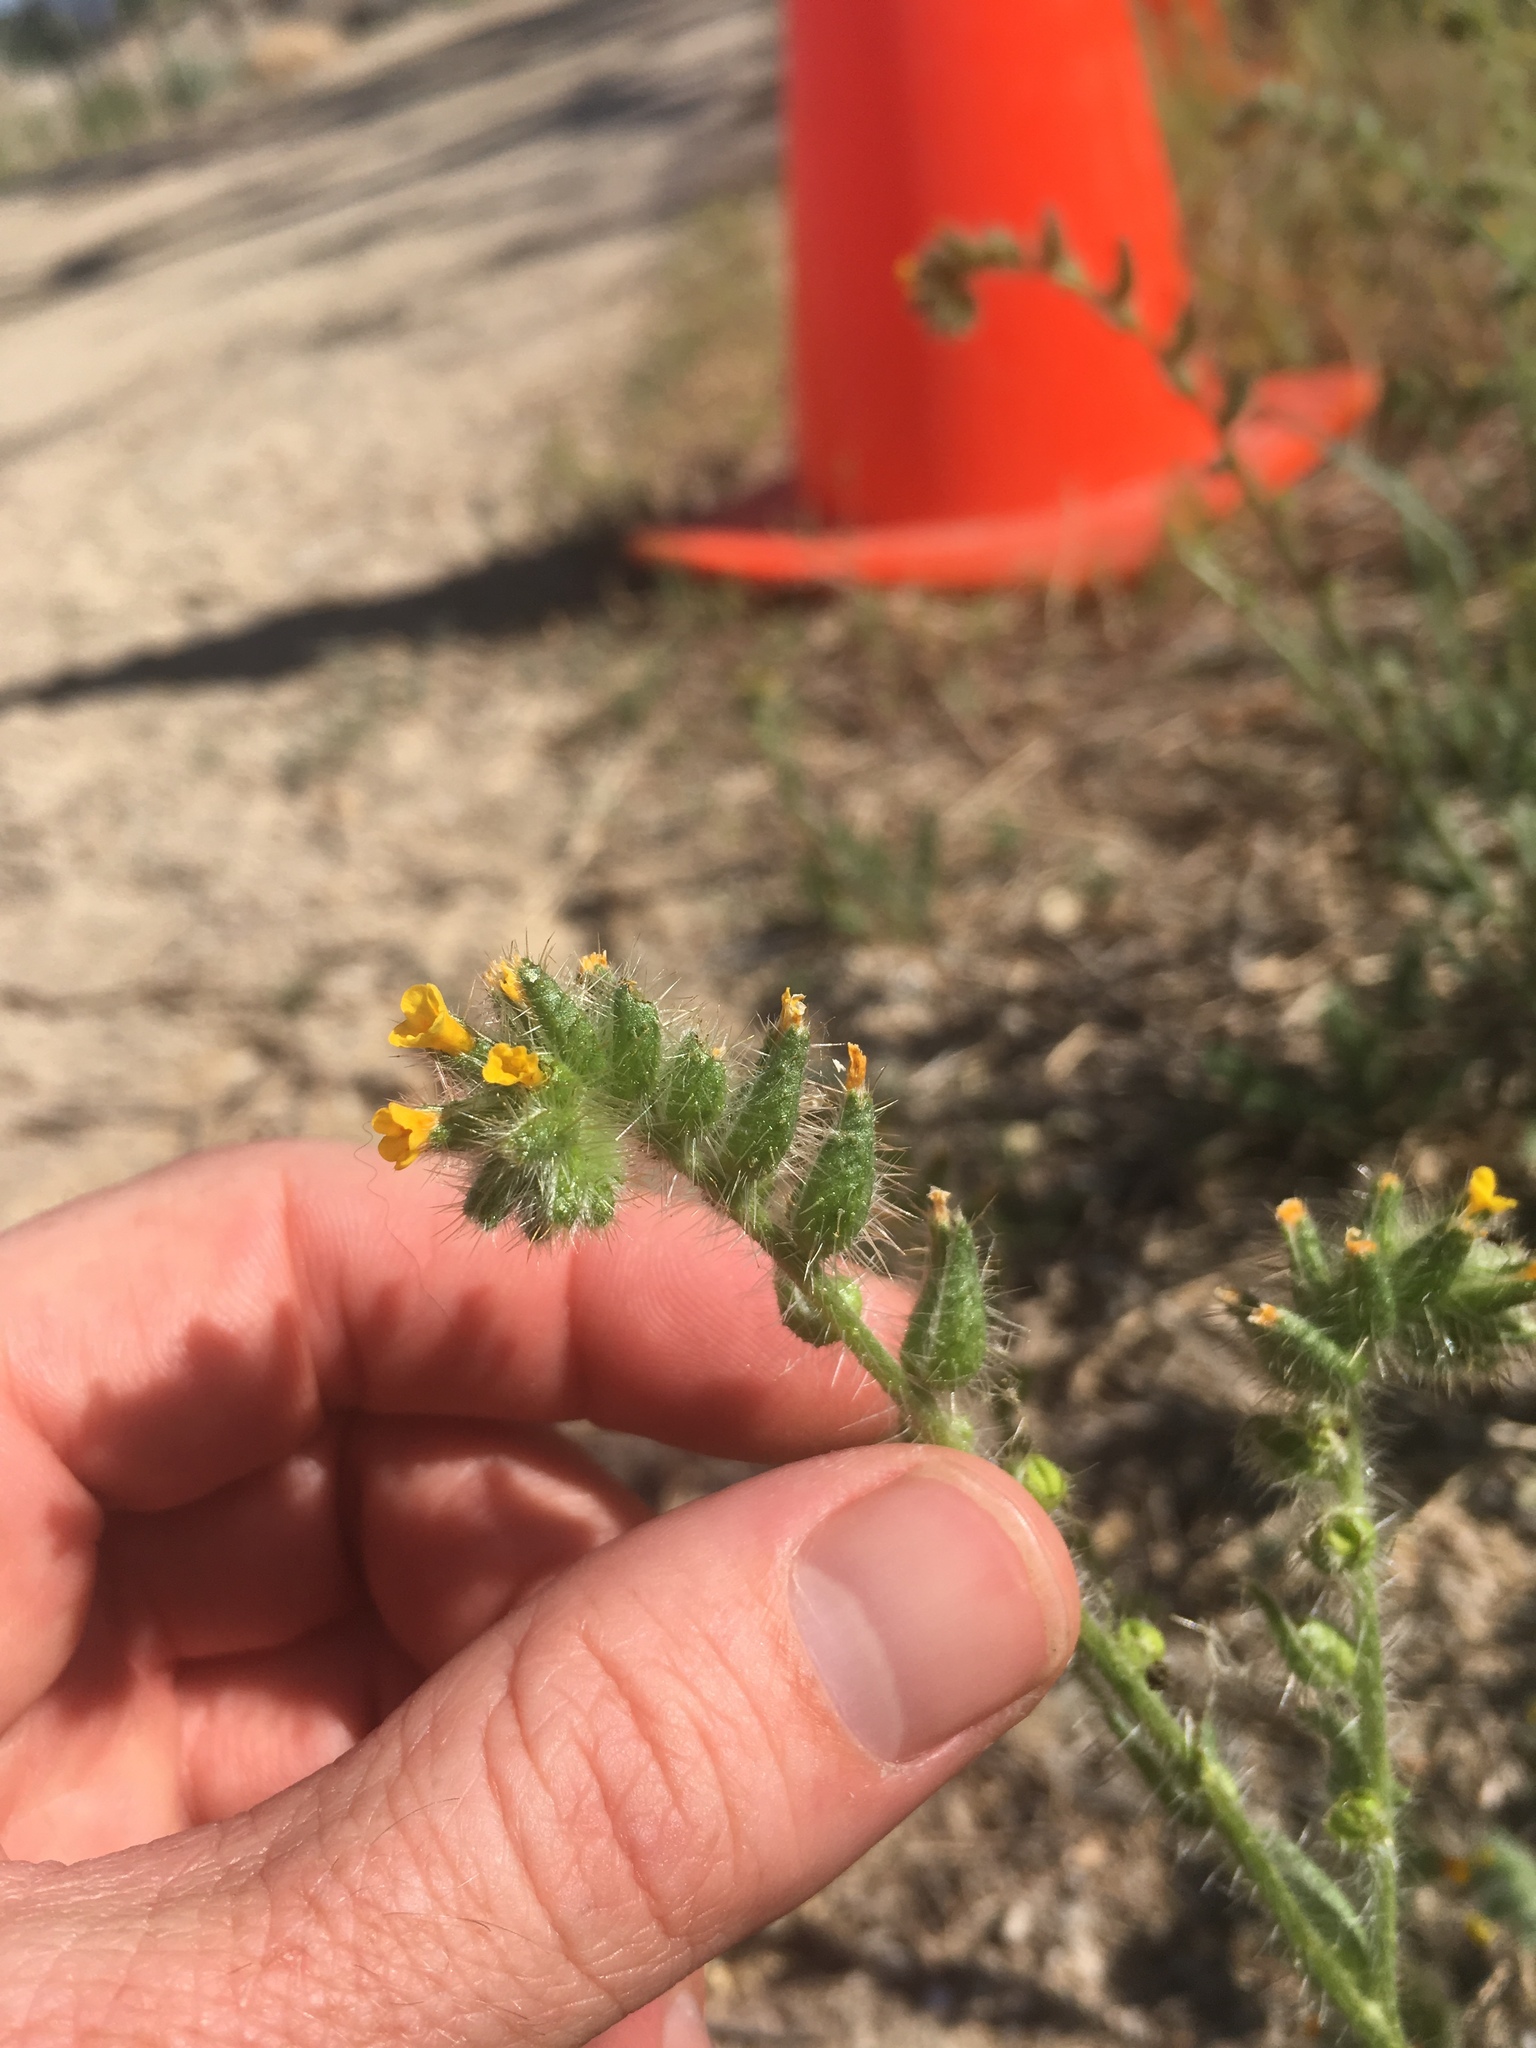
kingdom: Plantae
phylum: Tracheophyta
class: Magnoliopsida
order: Boraginales
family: Boraginaceae
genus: Amsinckia
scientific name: Amsinckia tessellata
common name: Tessellate fiddleneck
